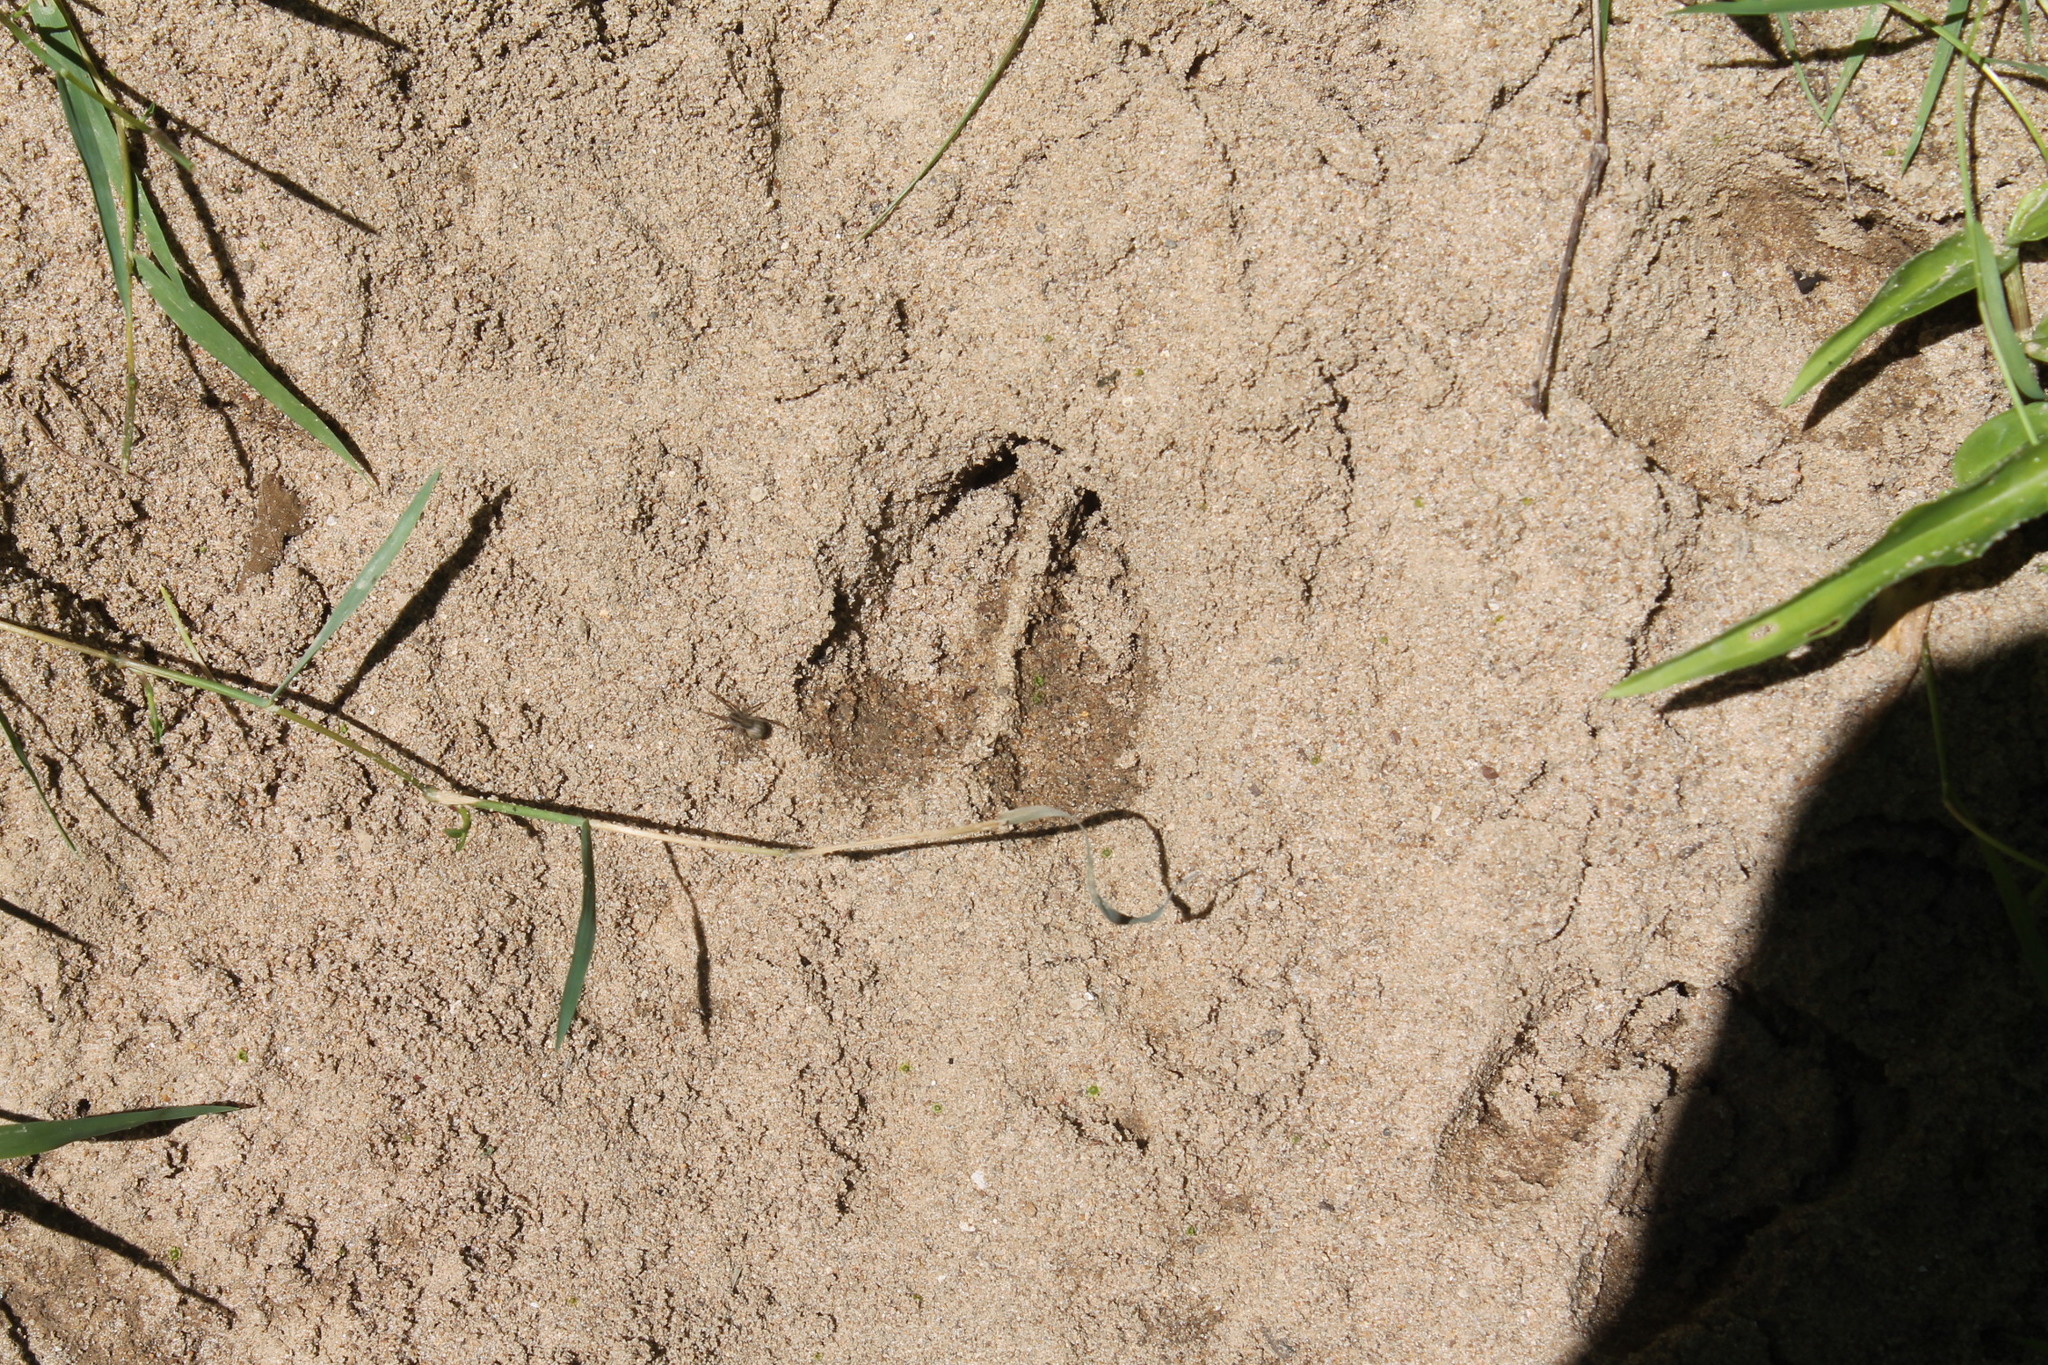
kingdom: Animalia
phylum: Chordata
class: Mammalia
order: Artiodactyla
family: Cervidae
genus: Odocoileus
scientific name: Odocoileus virginianus
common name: White-tailed deer
